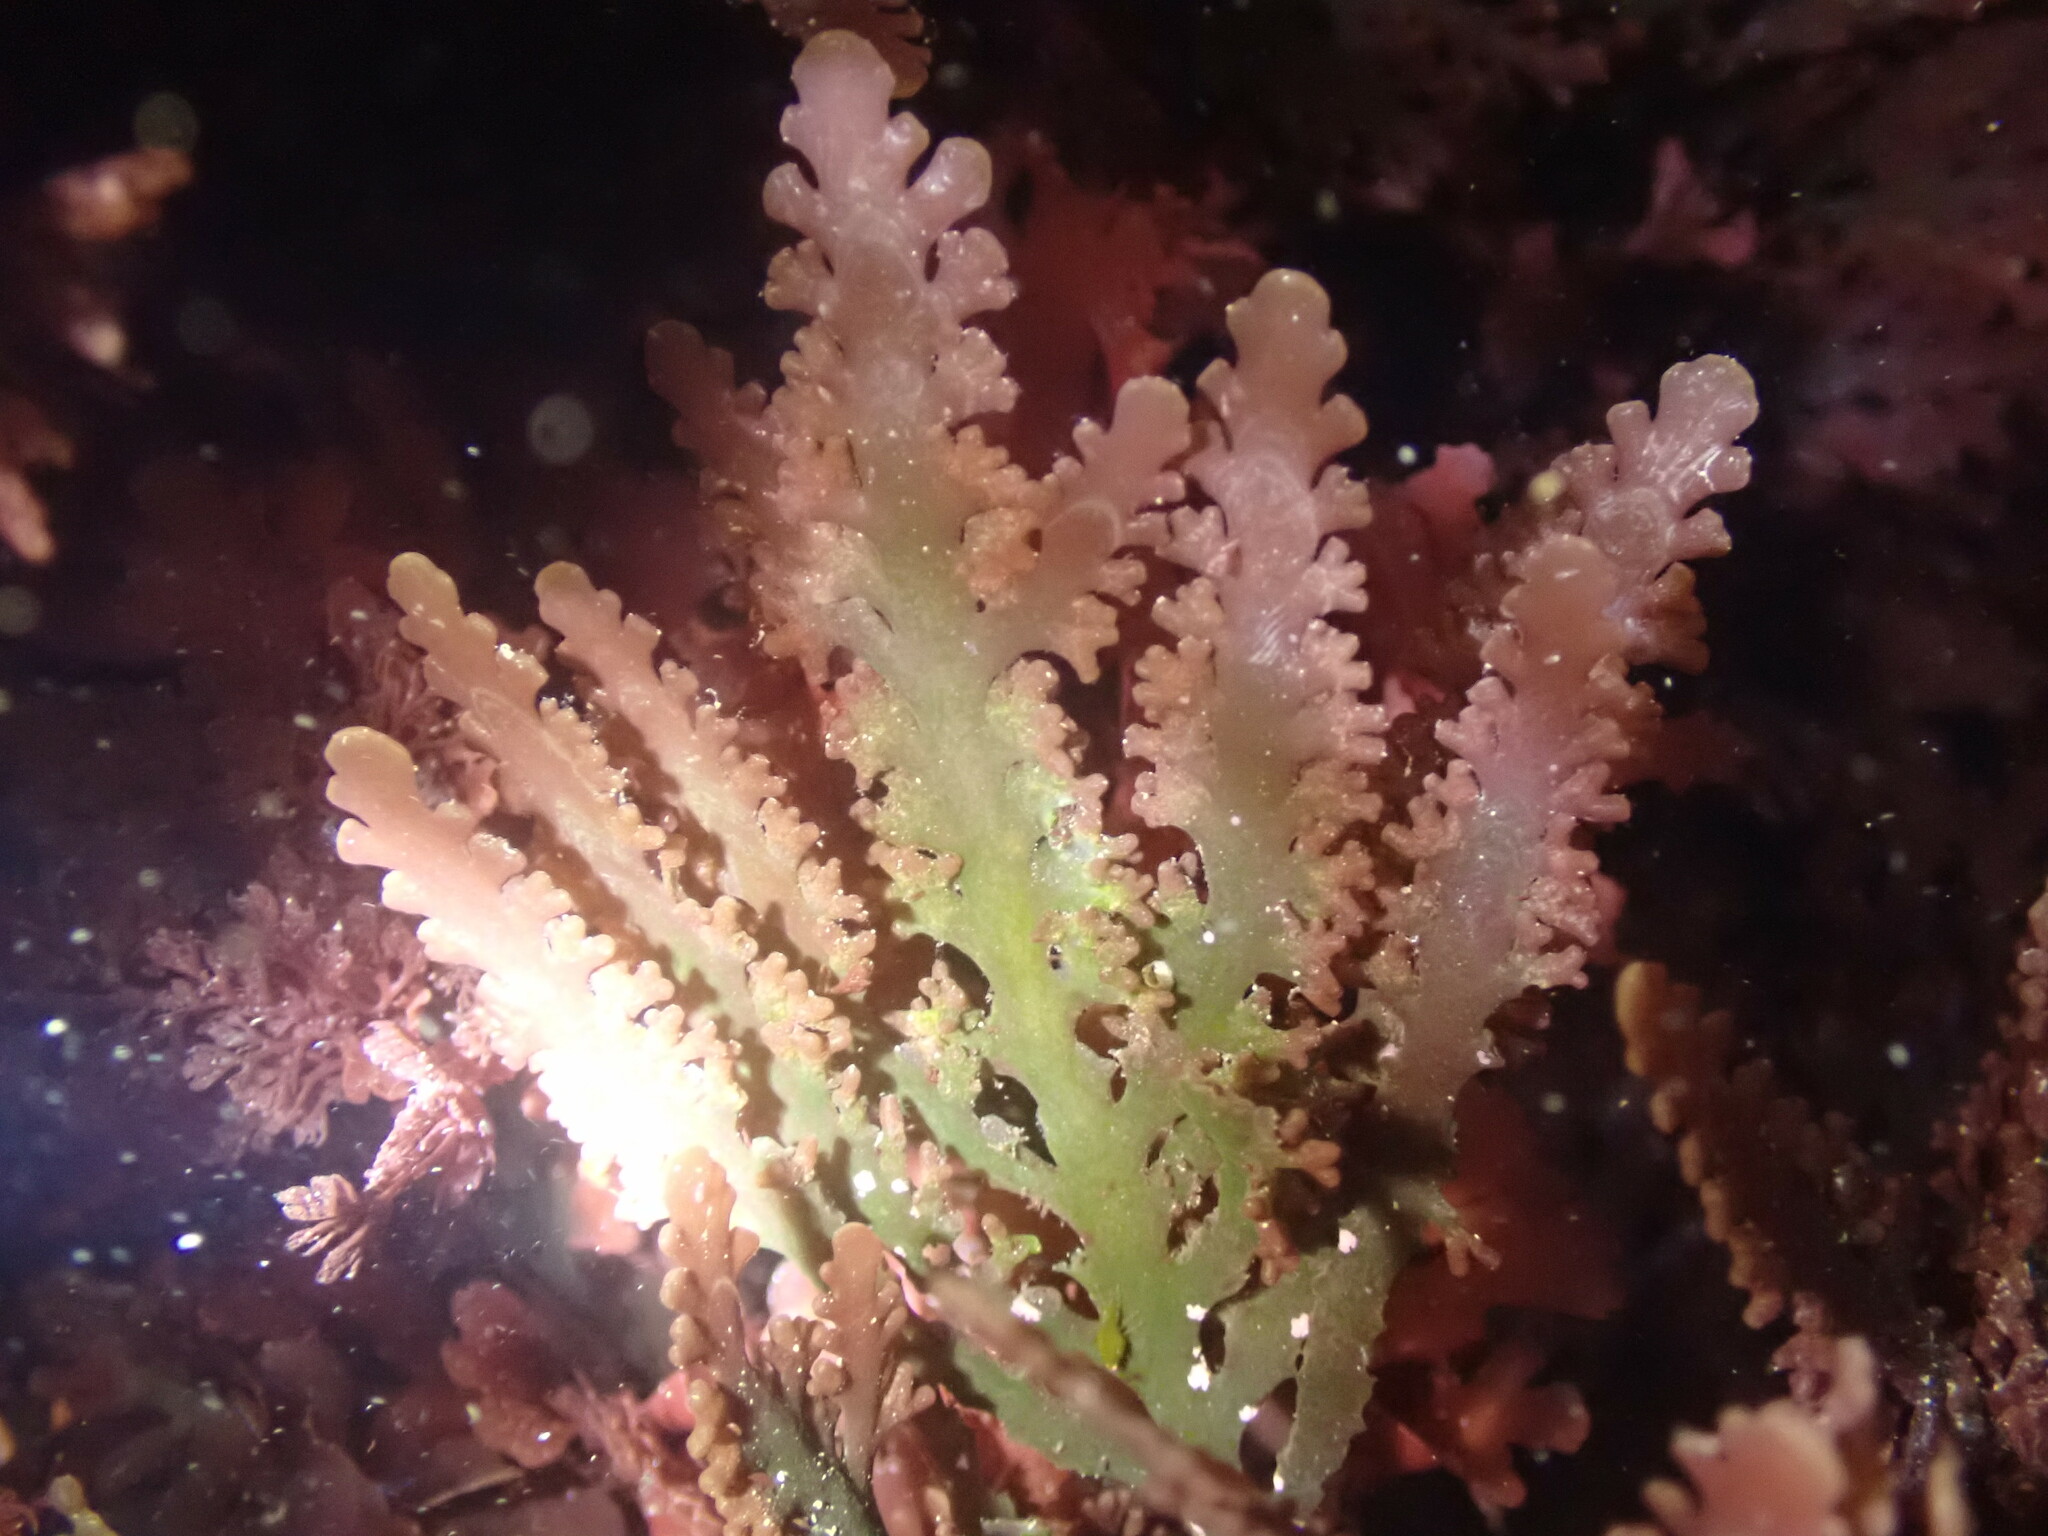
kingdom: Plantae
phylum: Rhodophyta
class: Florideophyceae
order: Ceramiales
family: Rhodomelaceae
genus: Osmundea
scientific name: Osmundea spectabilis
